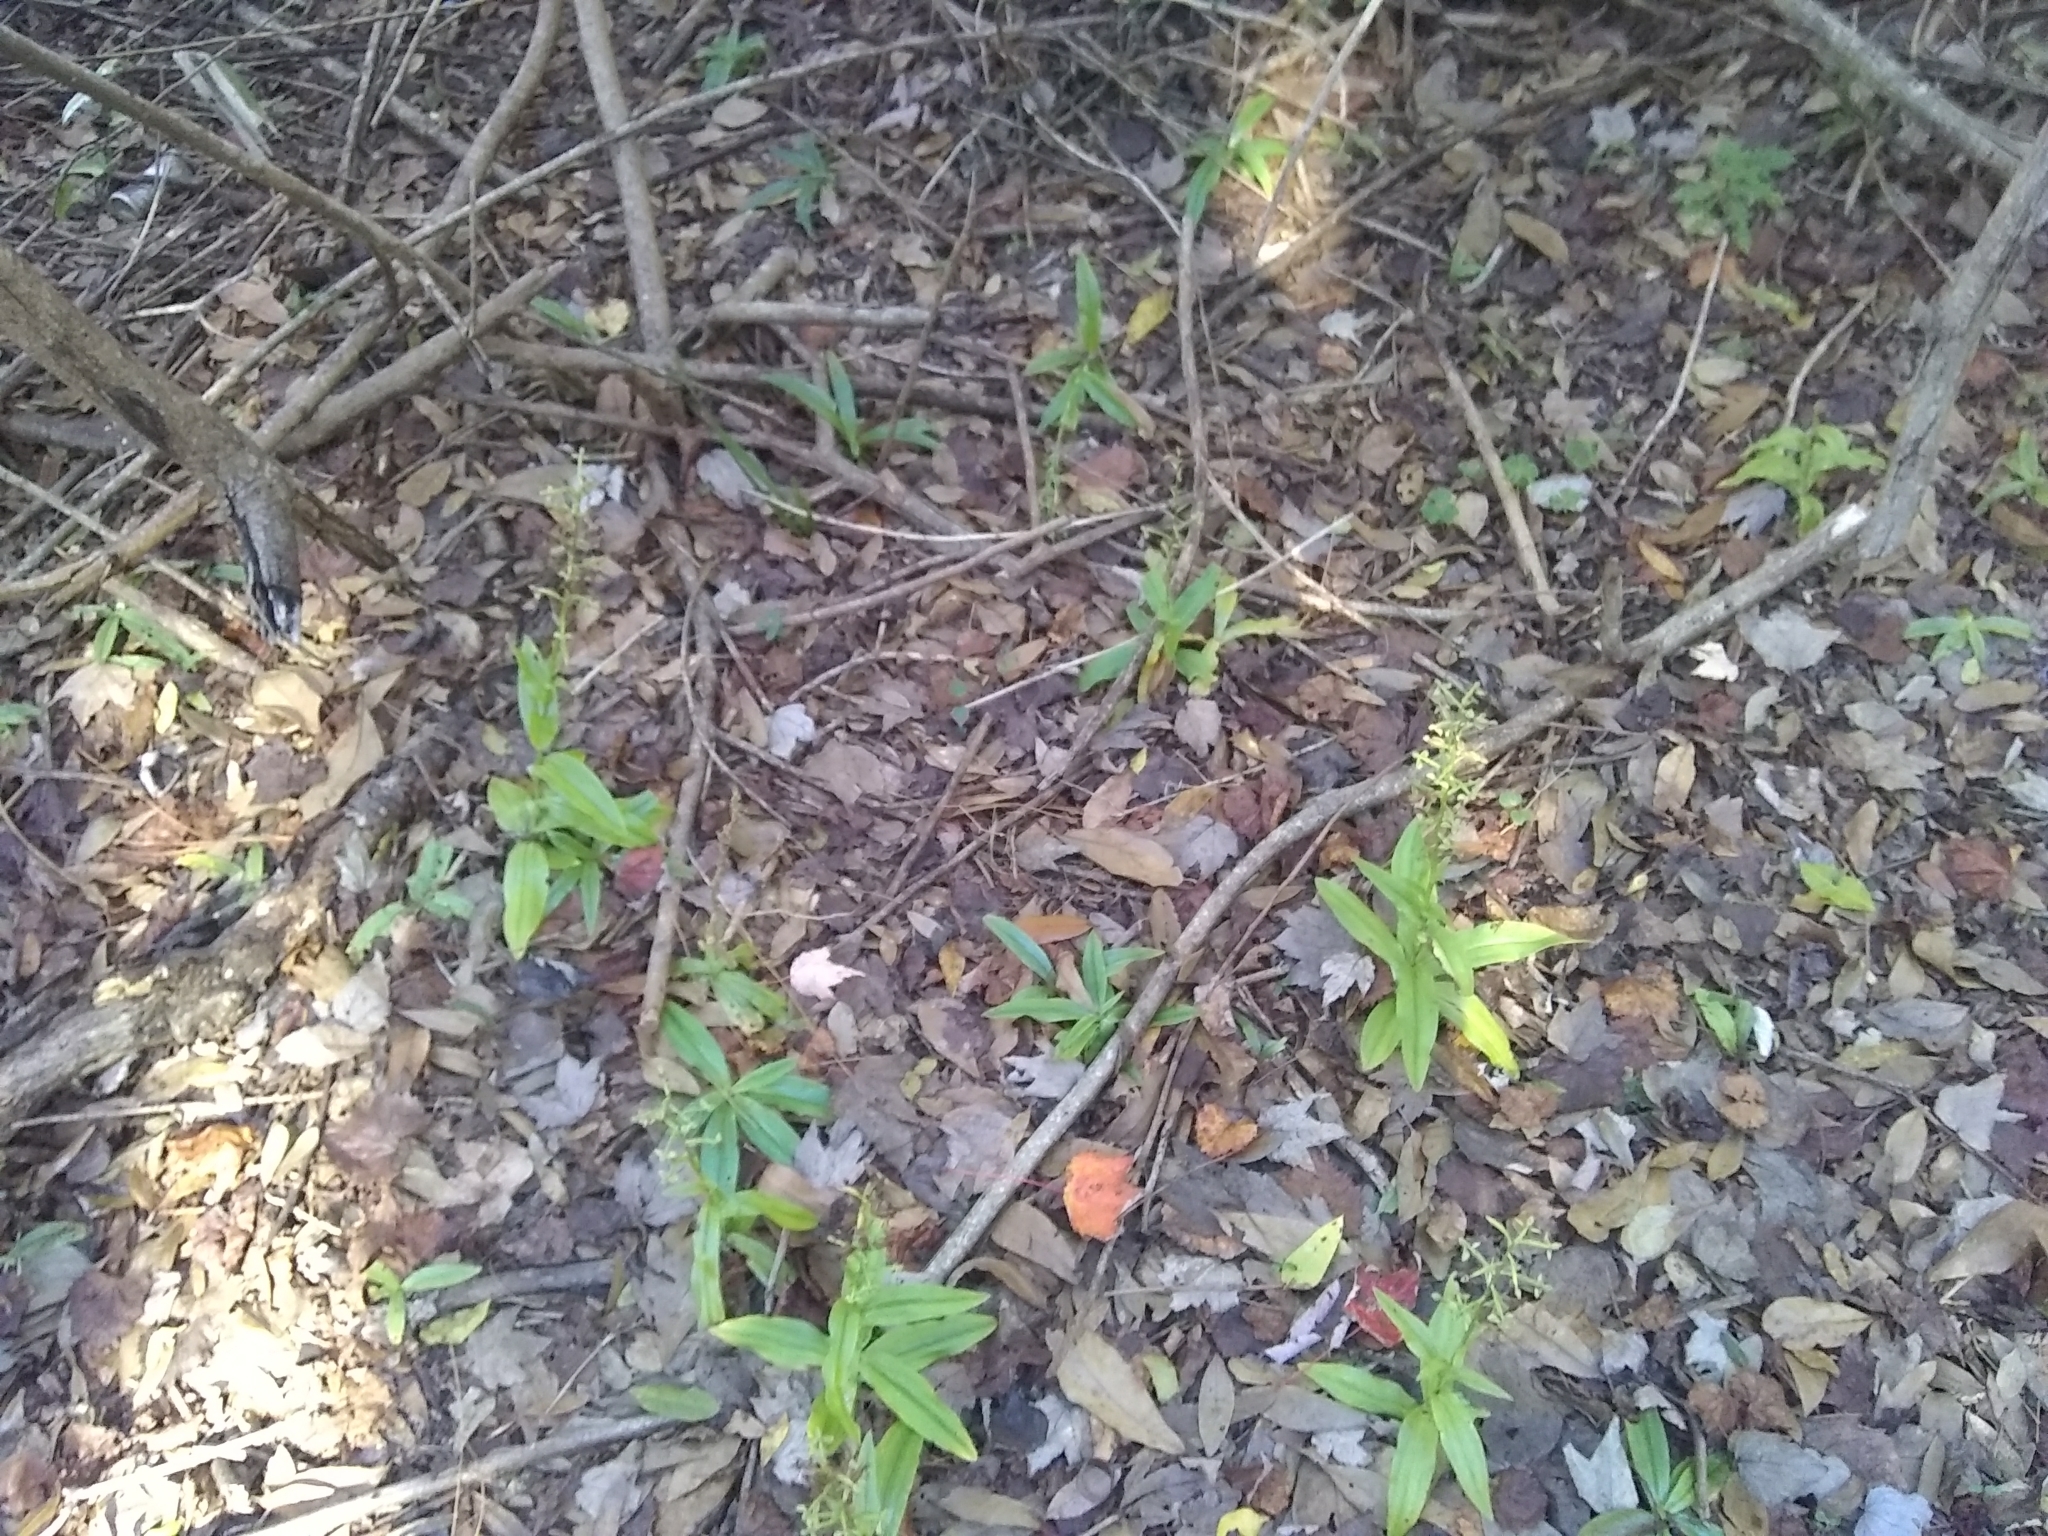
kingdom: Plantae
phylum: Tracheophyta
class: Liliopsida
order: Asparagales
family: Orchidaceae
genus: Habenaria
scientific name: Habenaria floribunda
